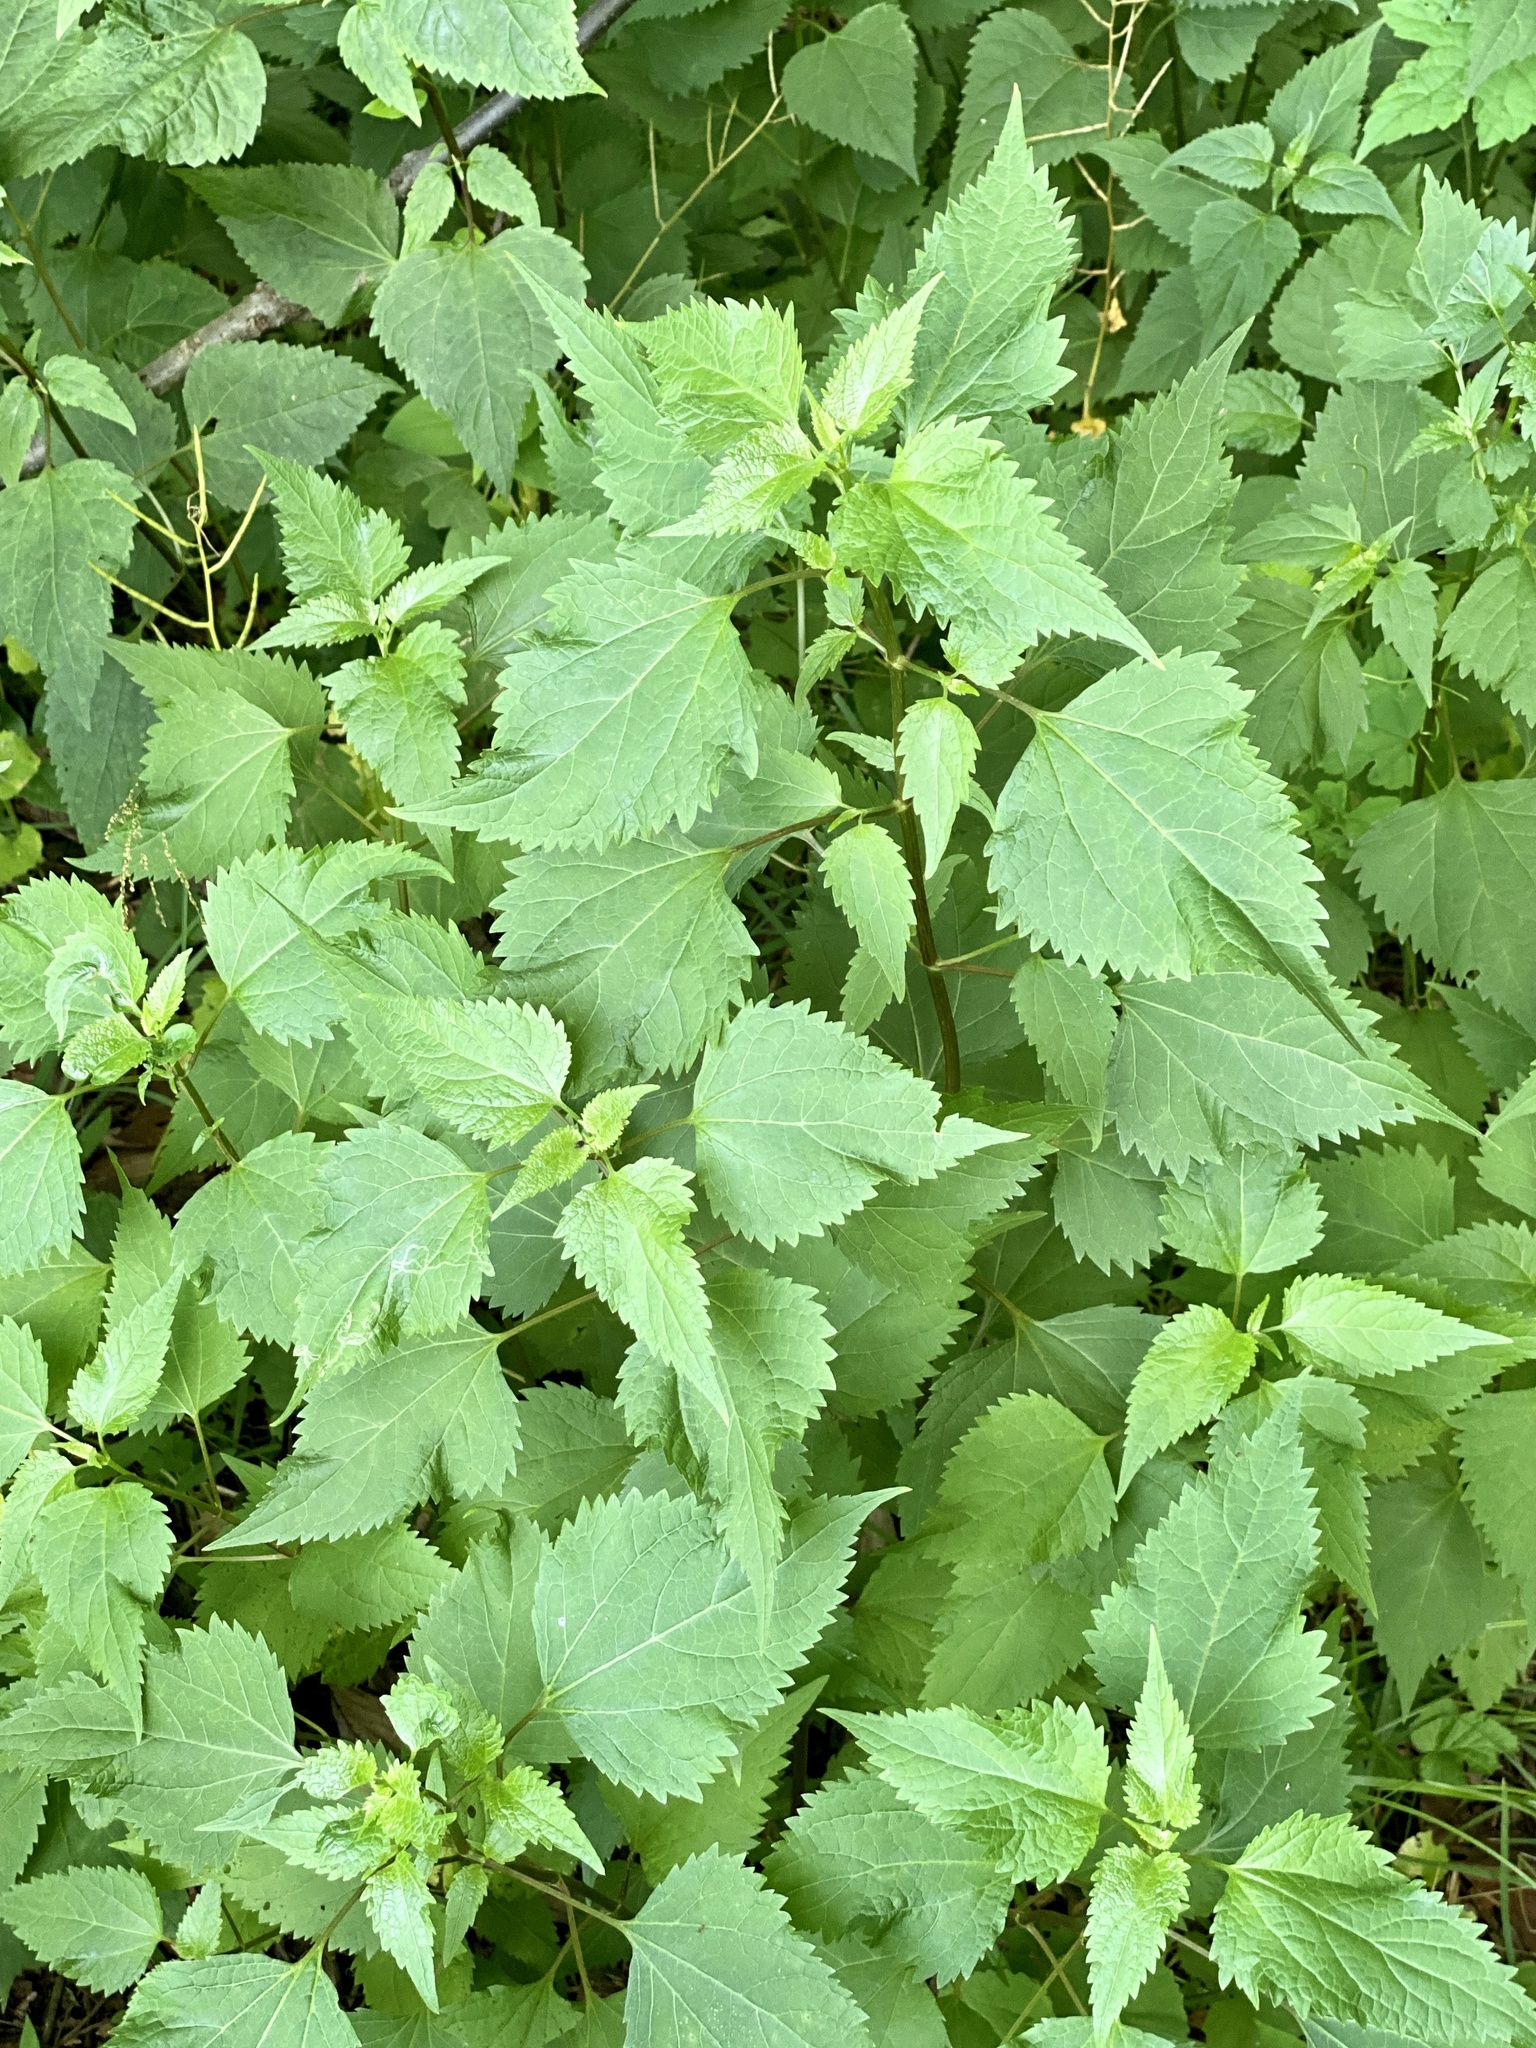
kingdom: Plantae
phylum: Tracheophyta
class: Magnoliopsida
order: Asterales
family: Asteraceae
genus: Ageratina
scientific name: Ageratina altissima
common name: White snakeroot
